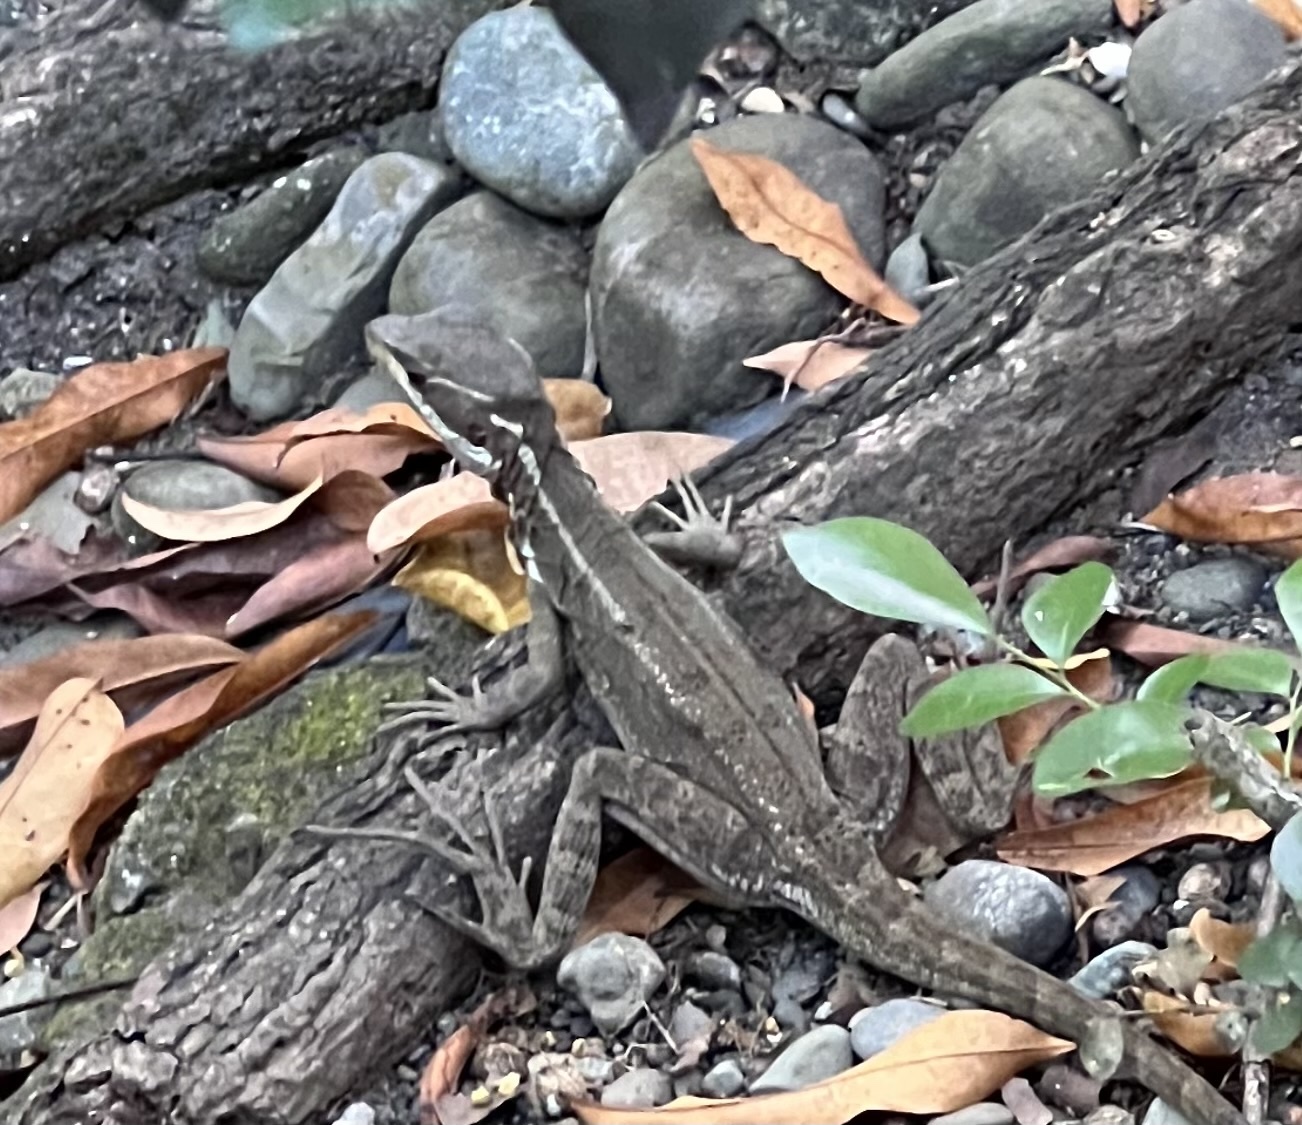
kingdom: Animalia
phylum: Chordata
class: Squamata
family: Corytophanidae
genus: Basiliscus
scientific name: Basiliscus basiliscus
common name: Common basilisk
